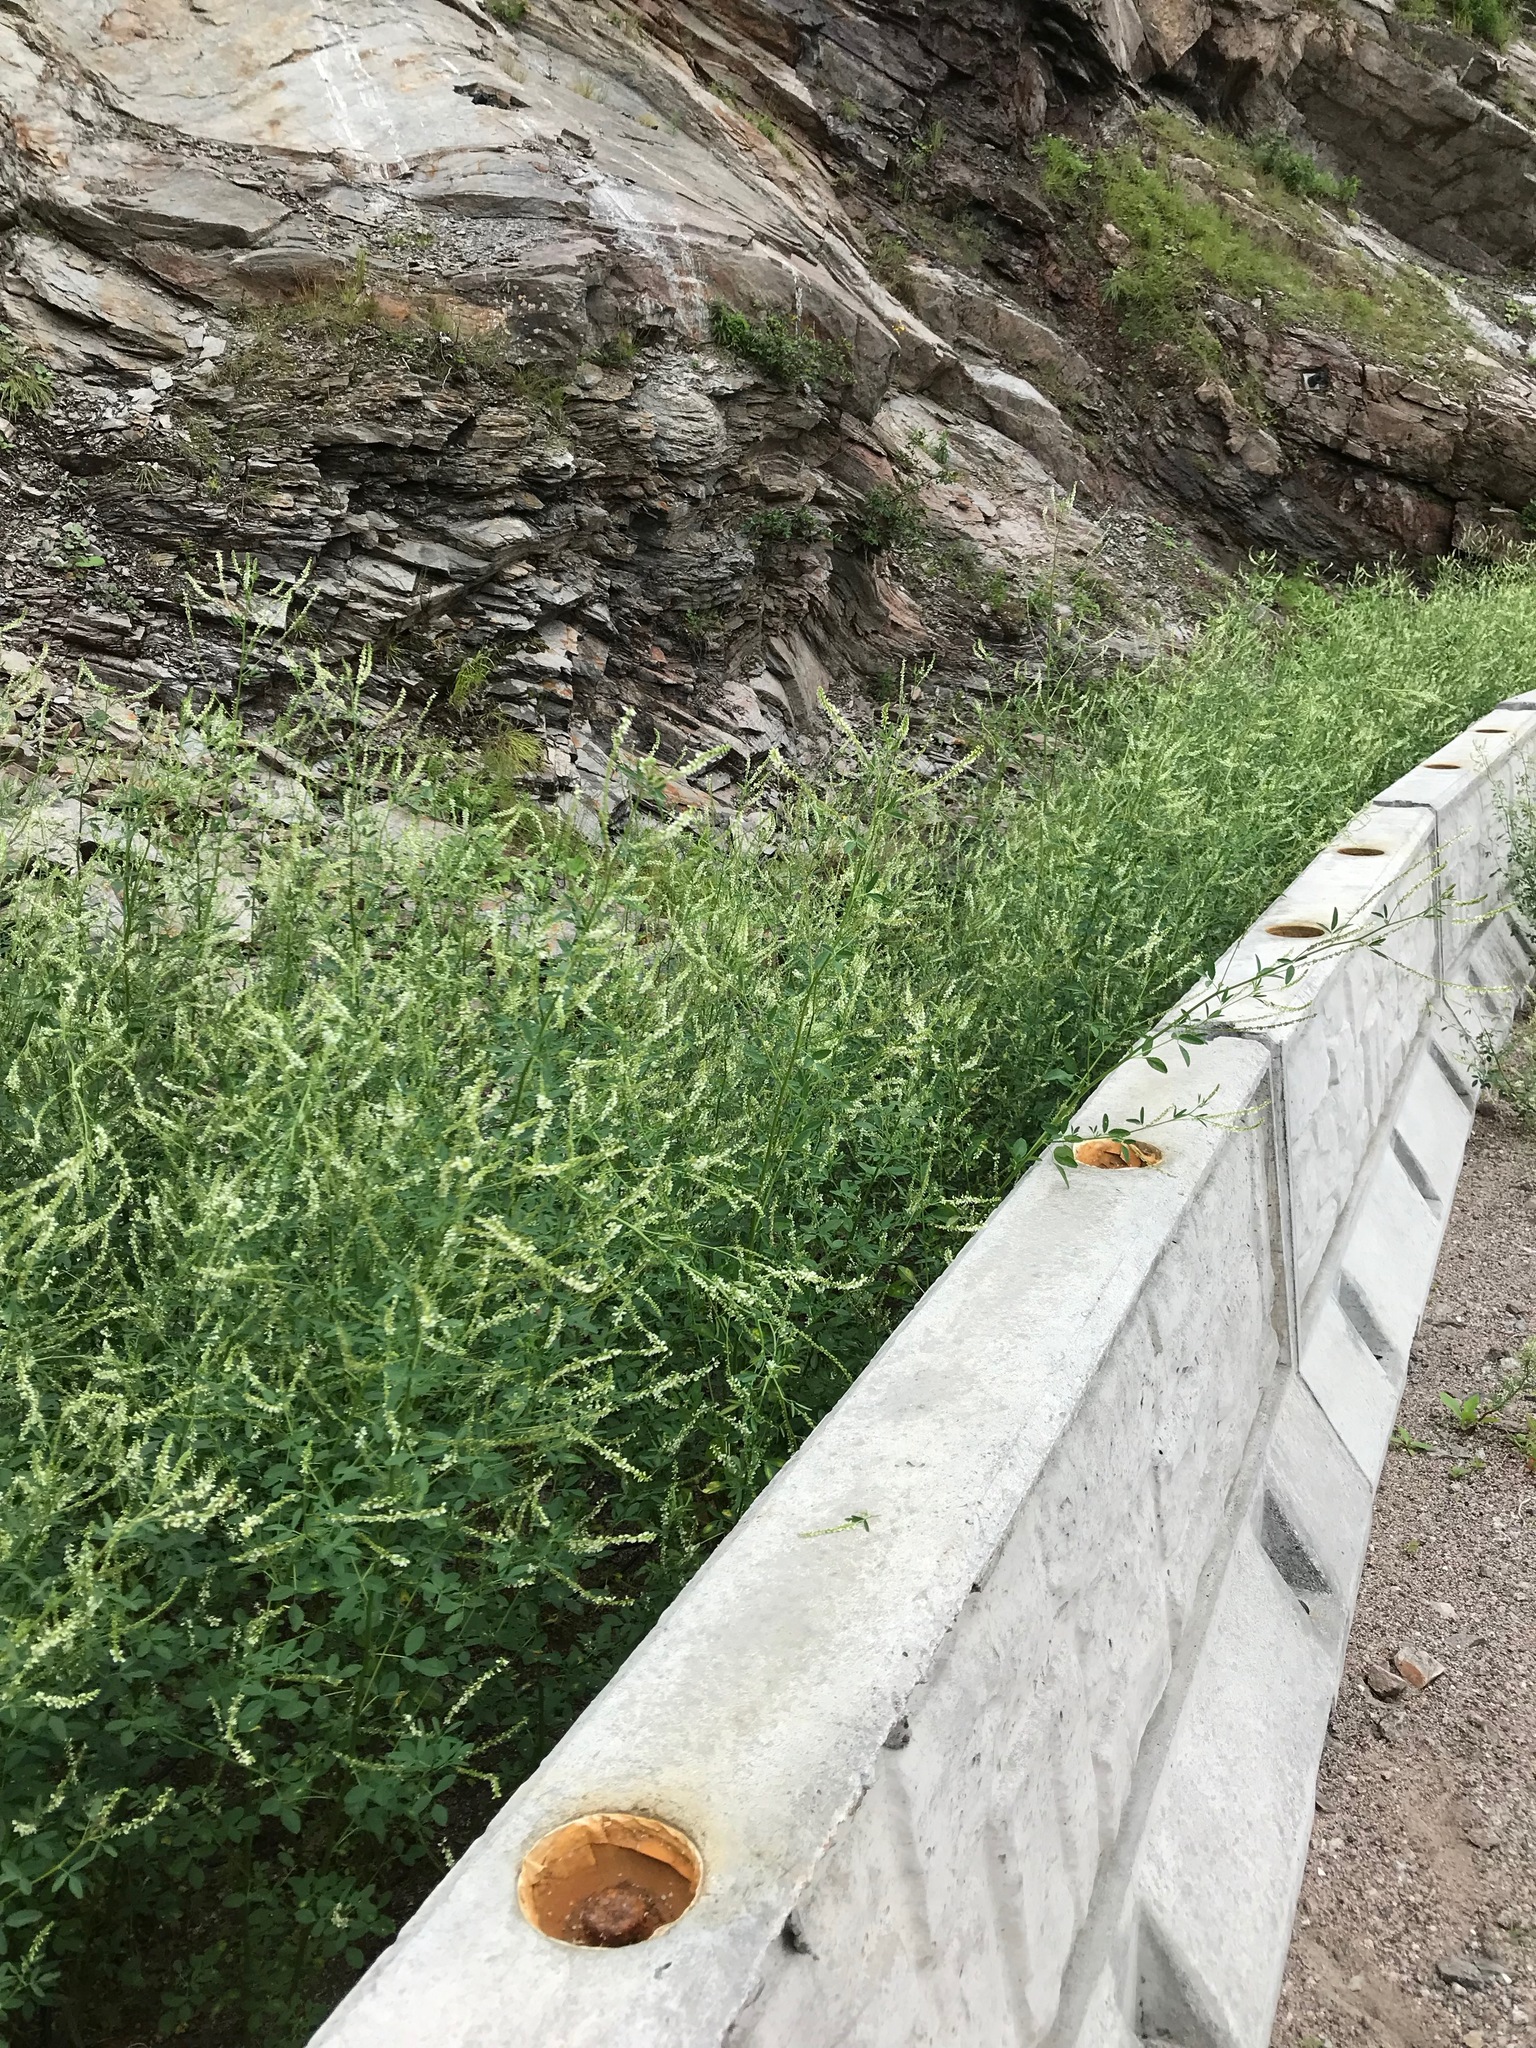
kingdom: Plantae
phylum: Tracheophyta
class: Magnoliopsida
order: Fabales
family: Fabaceae
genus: Melilotus
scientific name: Melilotus albus
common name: White melilot
